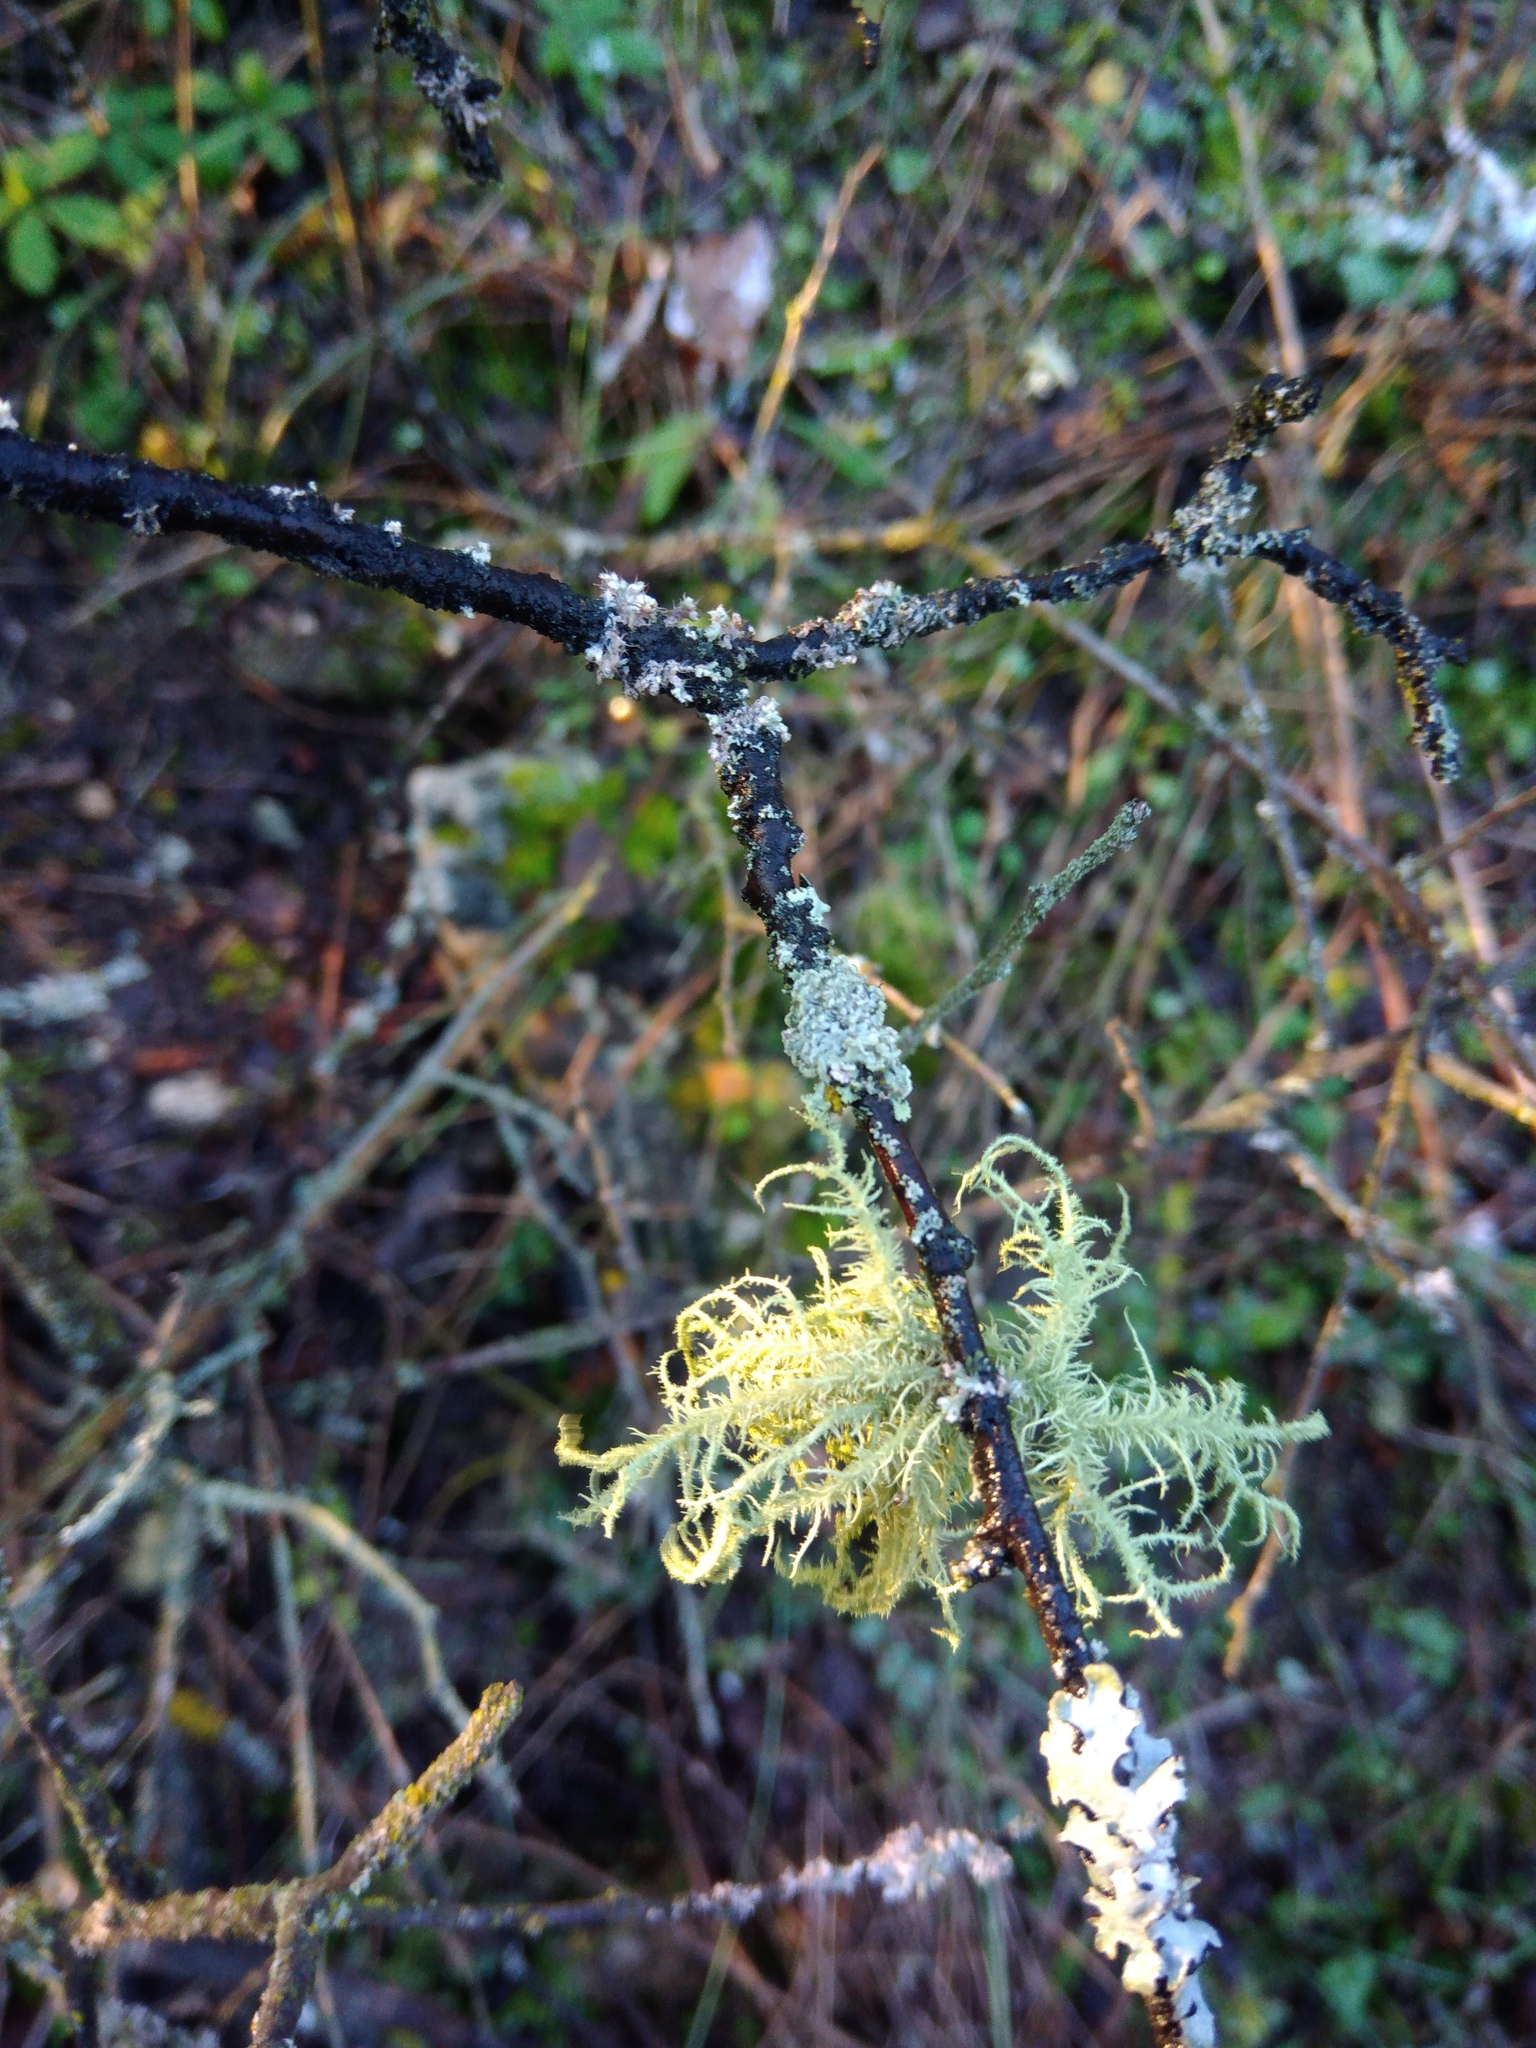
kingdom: Fungi
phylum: Ascomycota
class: Lecanoromycetes
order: Lecanorales
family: Parmeliaceae
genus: Usnea
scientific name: Usnea hirta
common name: Bristly beard lichen
